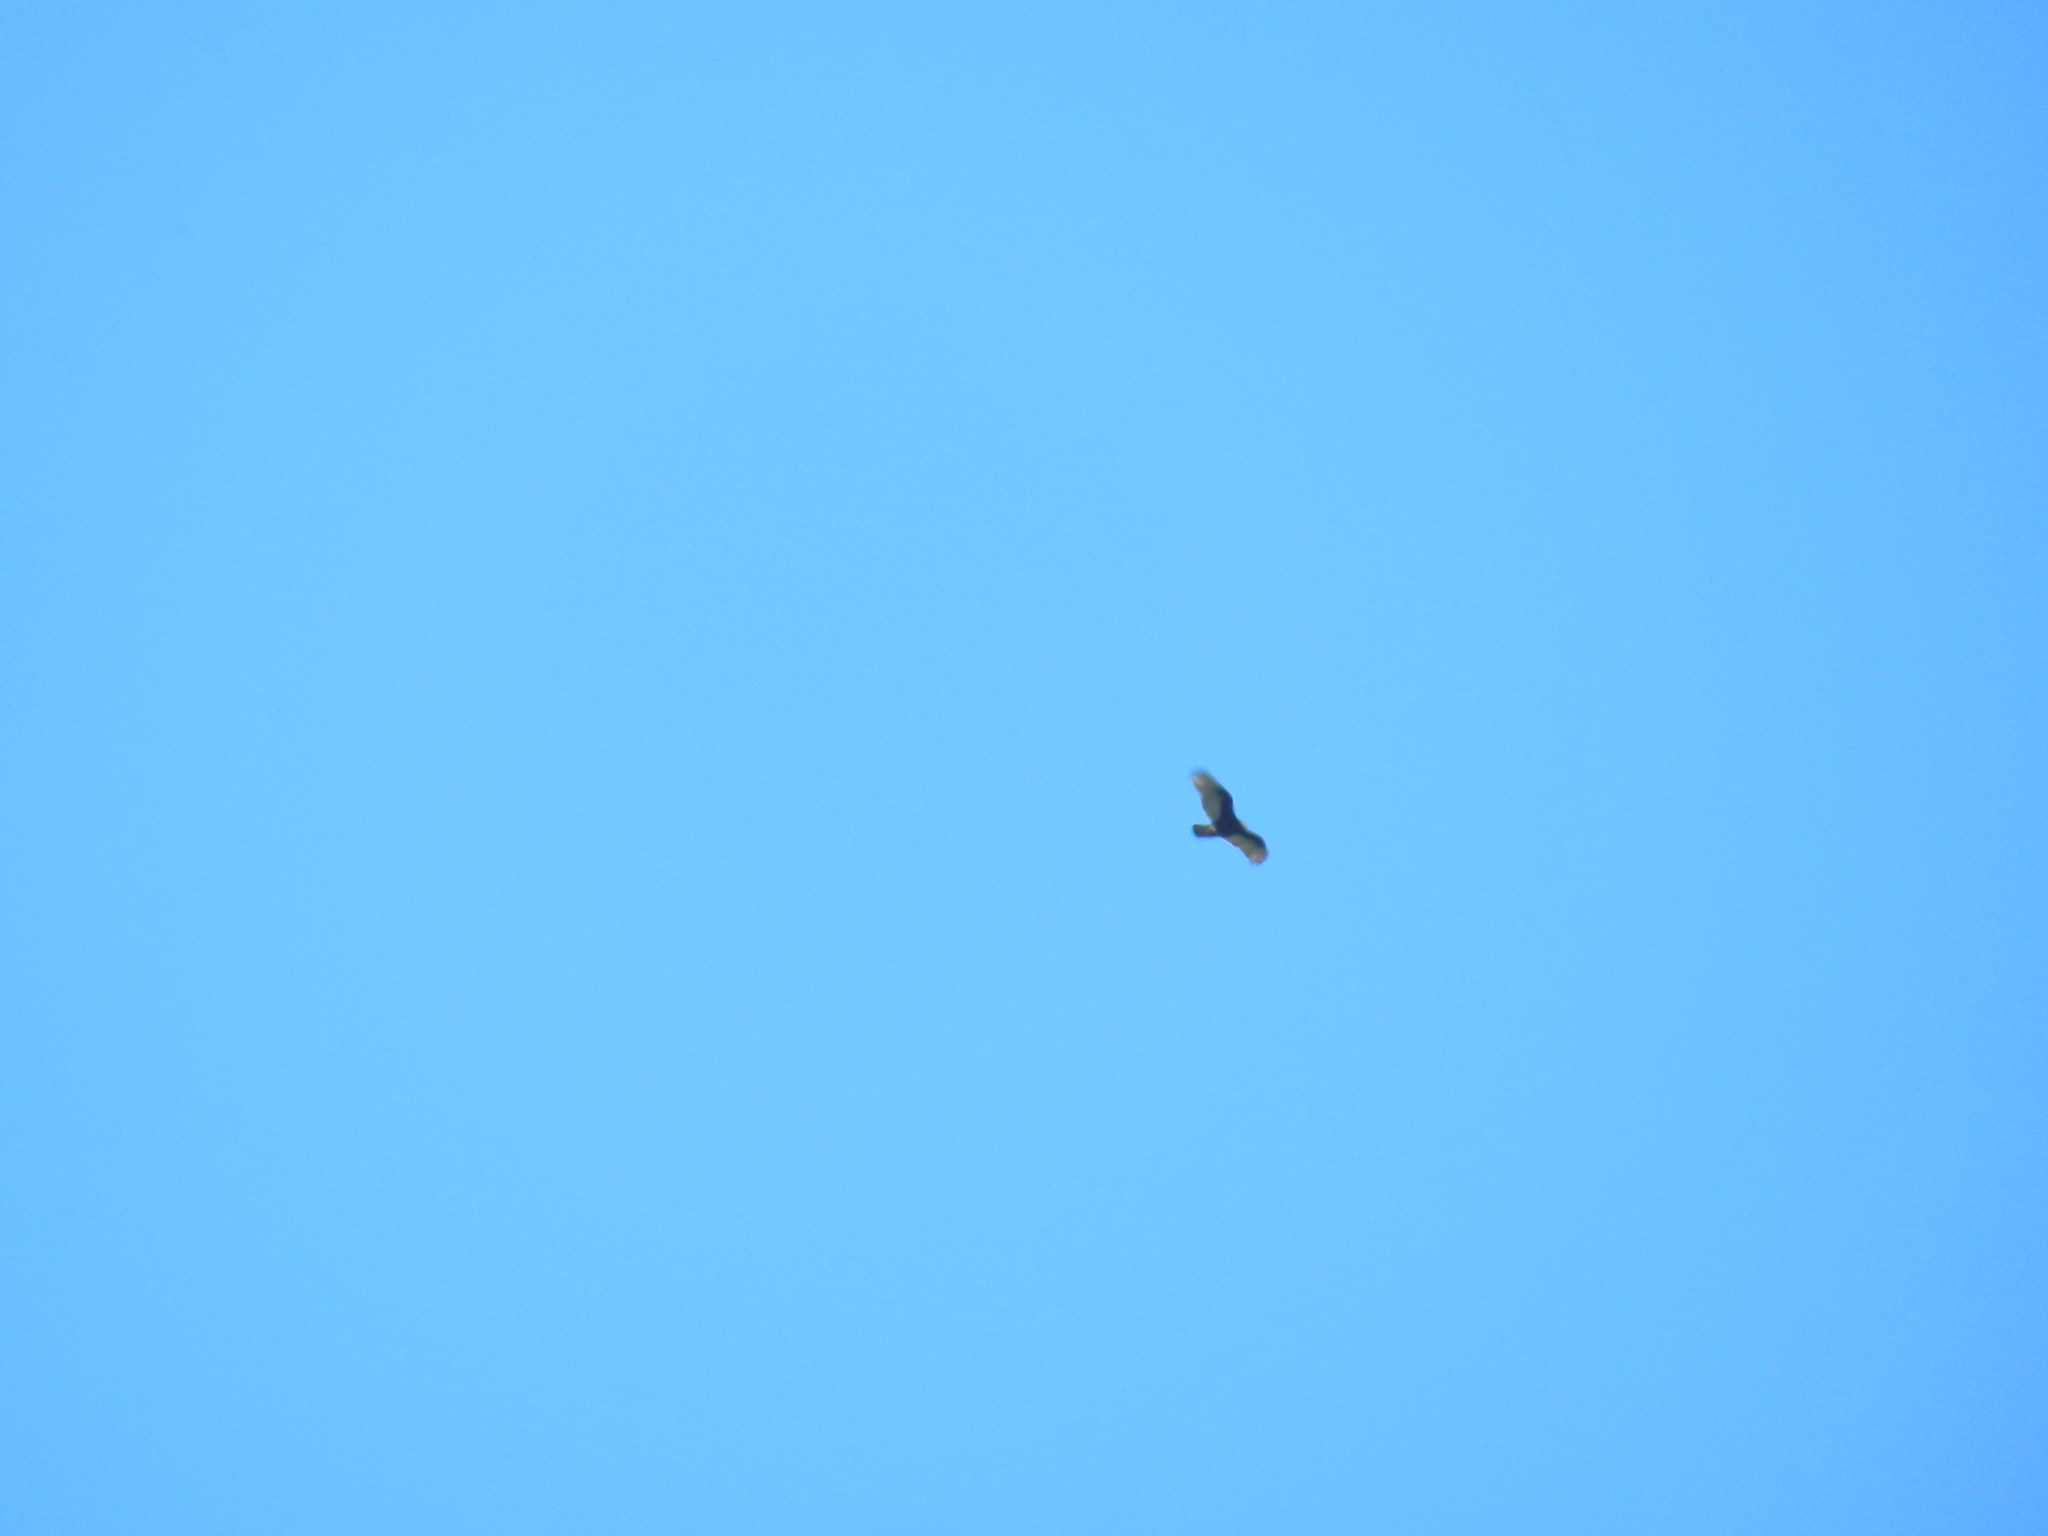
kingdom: Animalia
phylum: Chordata
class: Aves
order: Accipitriformes
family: Cathartidae
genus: Cathartes
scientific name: Cathartes aura
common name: Turkey vulture
